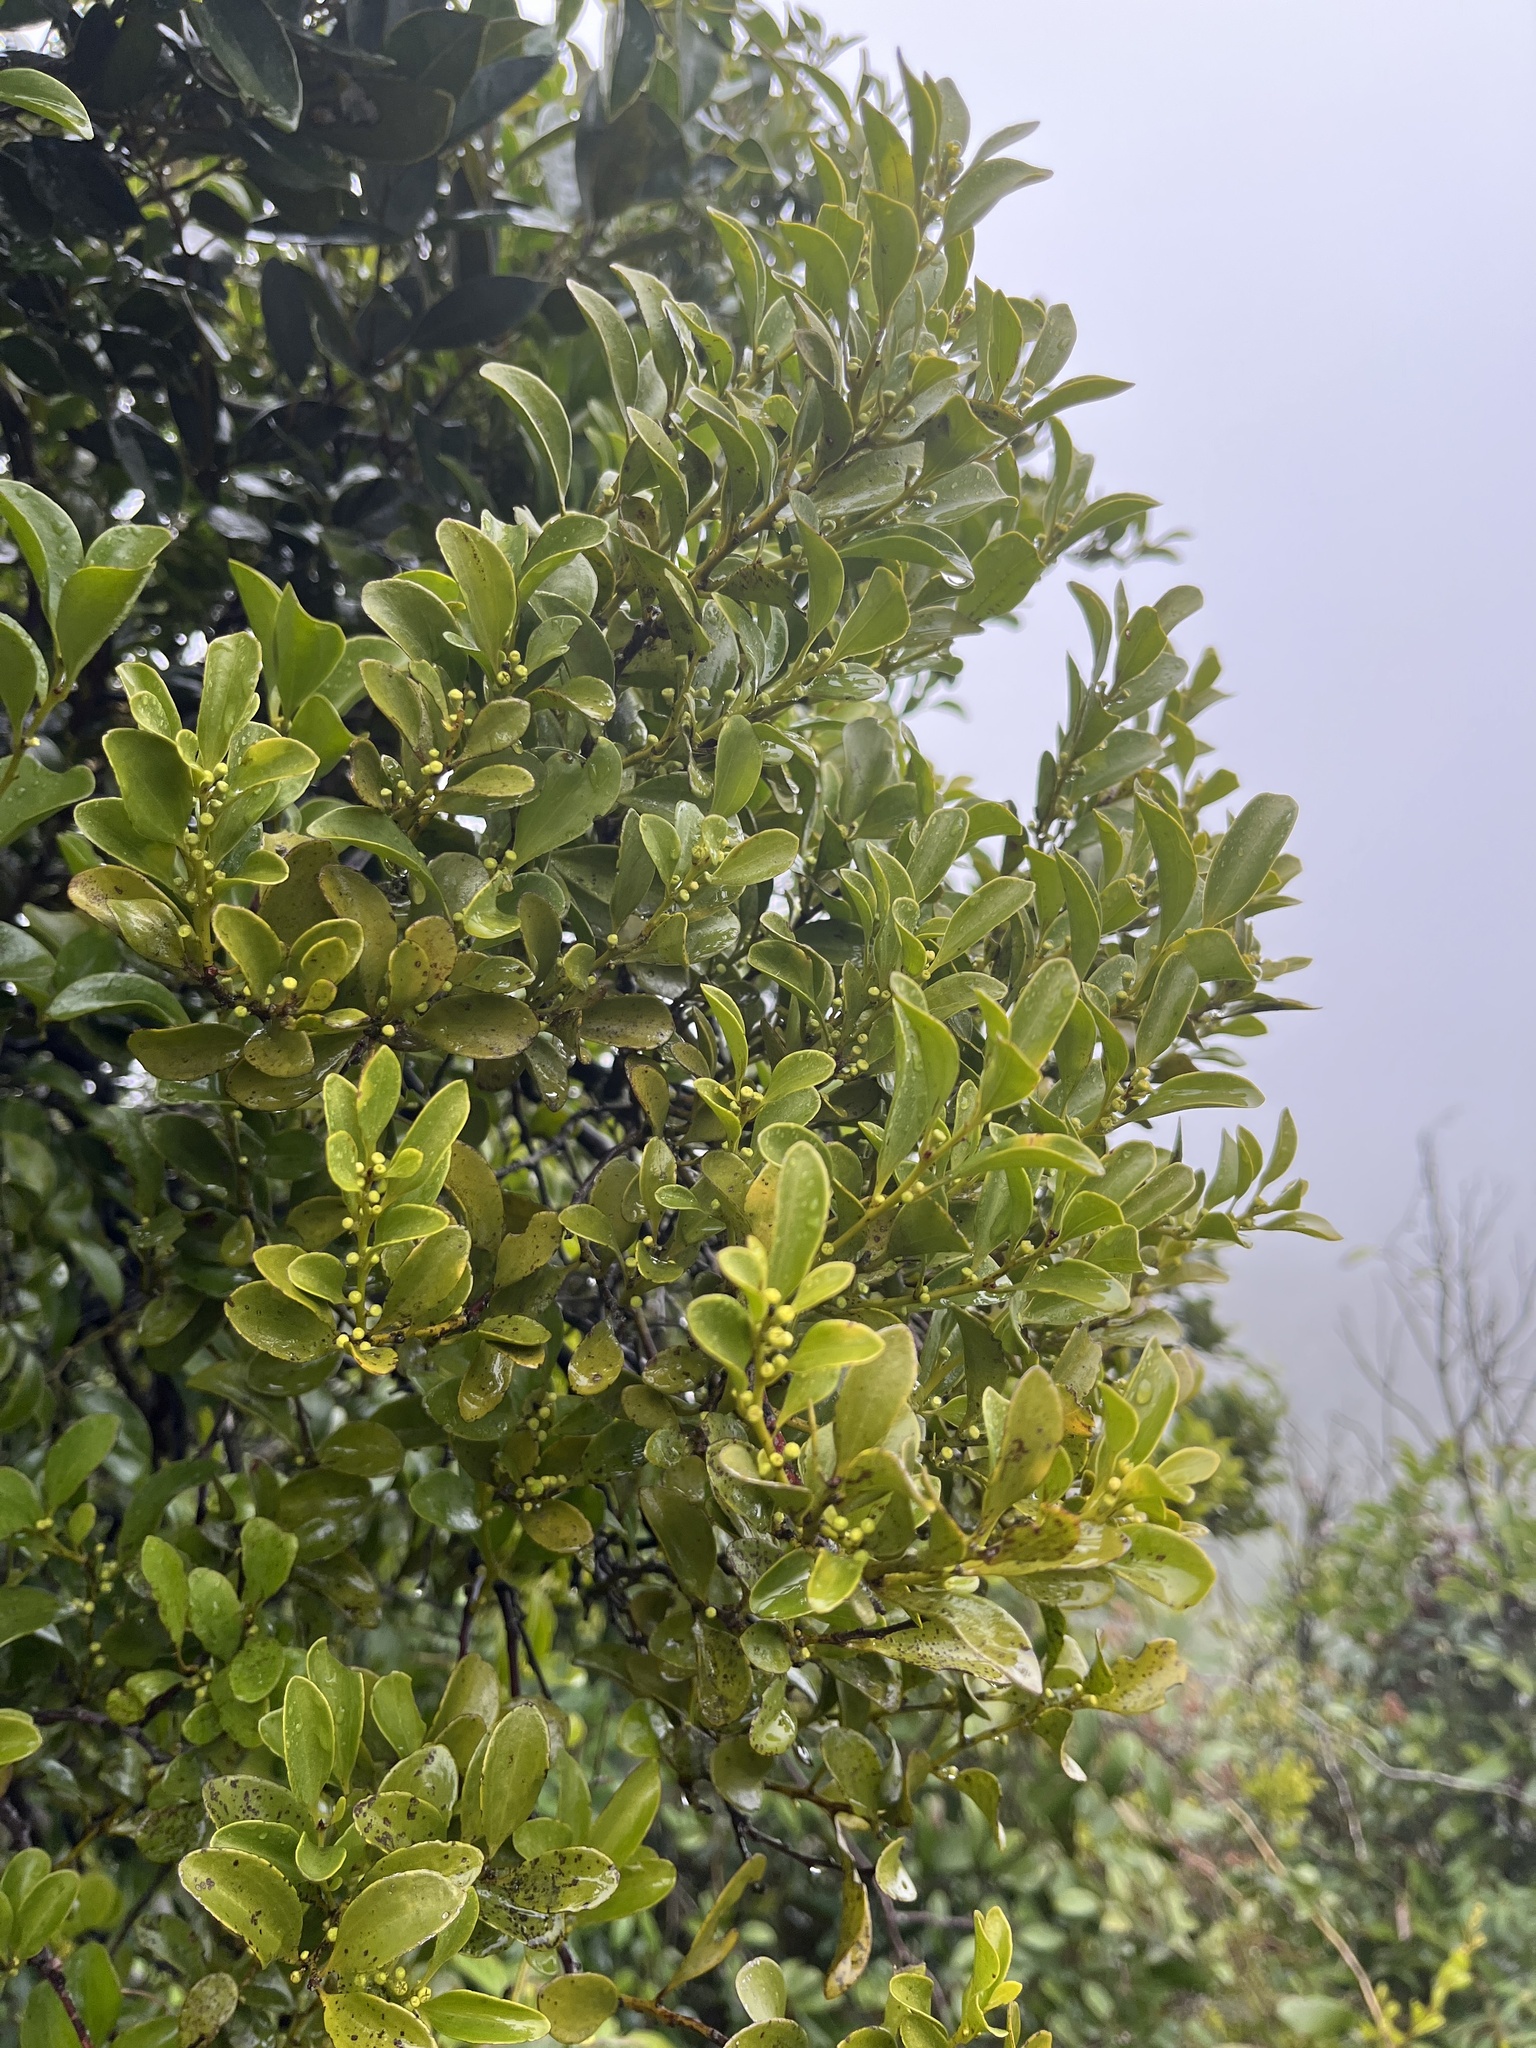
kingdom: Plantae
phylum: Tracheophyta
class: Magnoliopsida
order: Santalales
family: Amphorogynaceae
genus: Dendrotrophe
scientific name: Dendrotrophe varians
